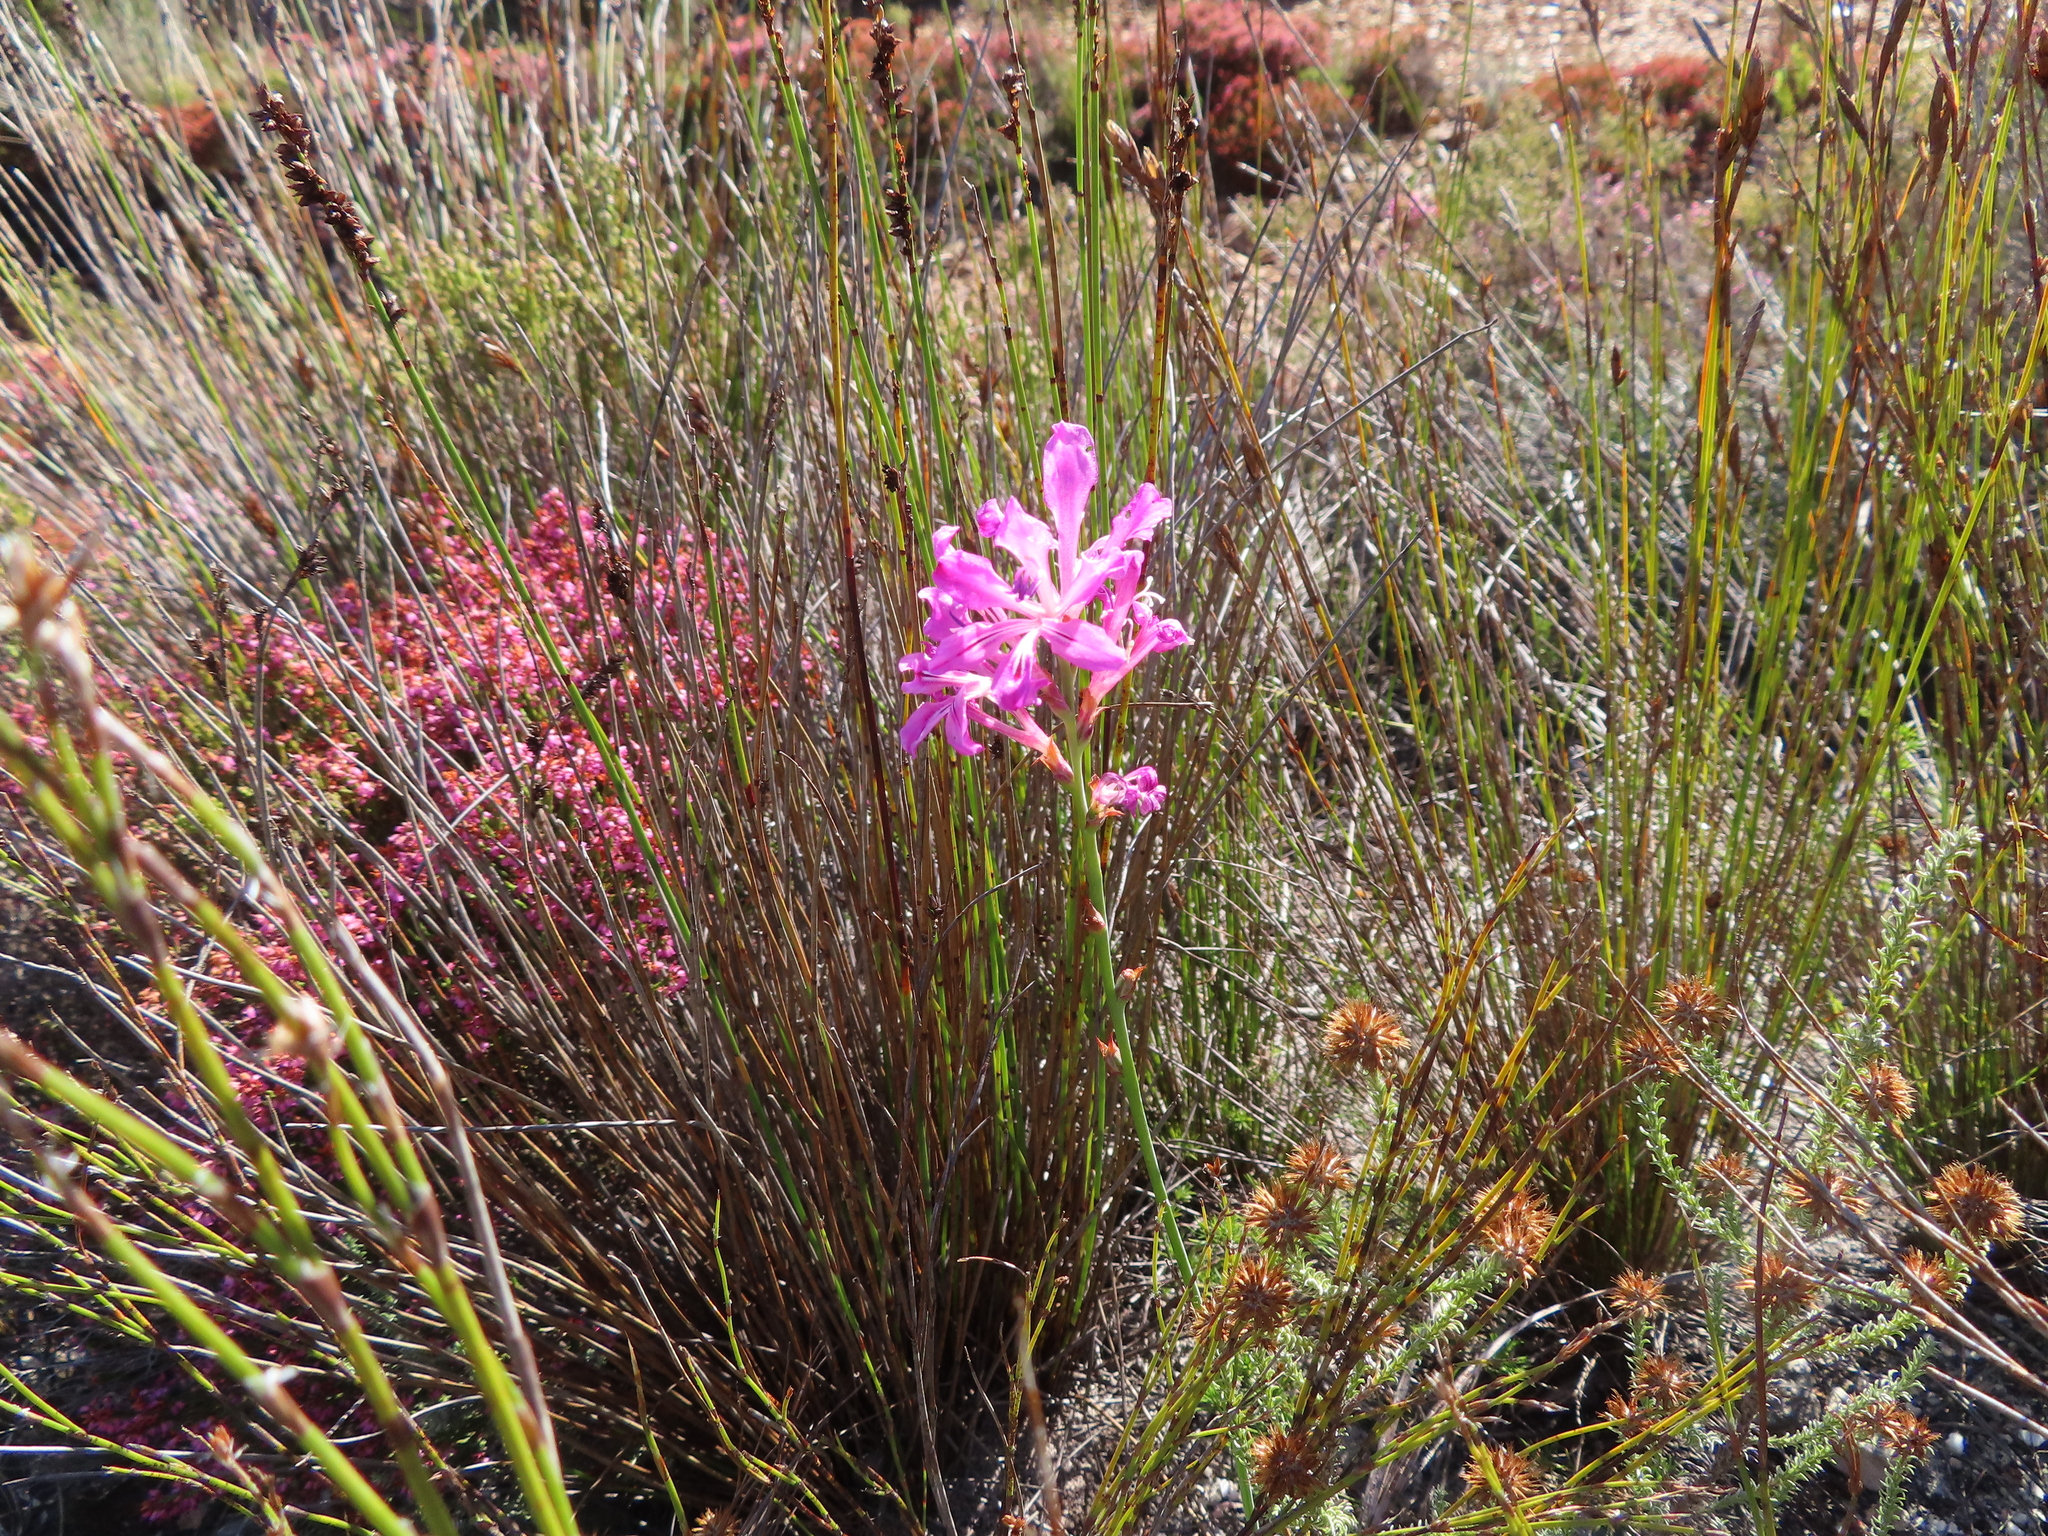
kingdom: Plantae
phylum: Tracheophyta
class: Liliopsida
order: Asparagales
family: Iridaceae
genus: Tritoniopsis
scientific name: Tritoniopsis lata
